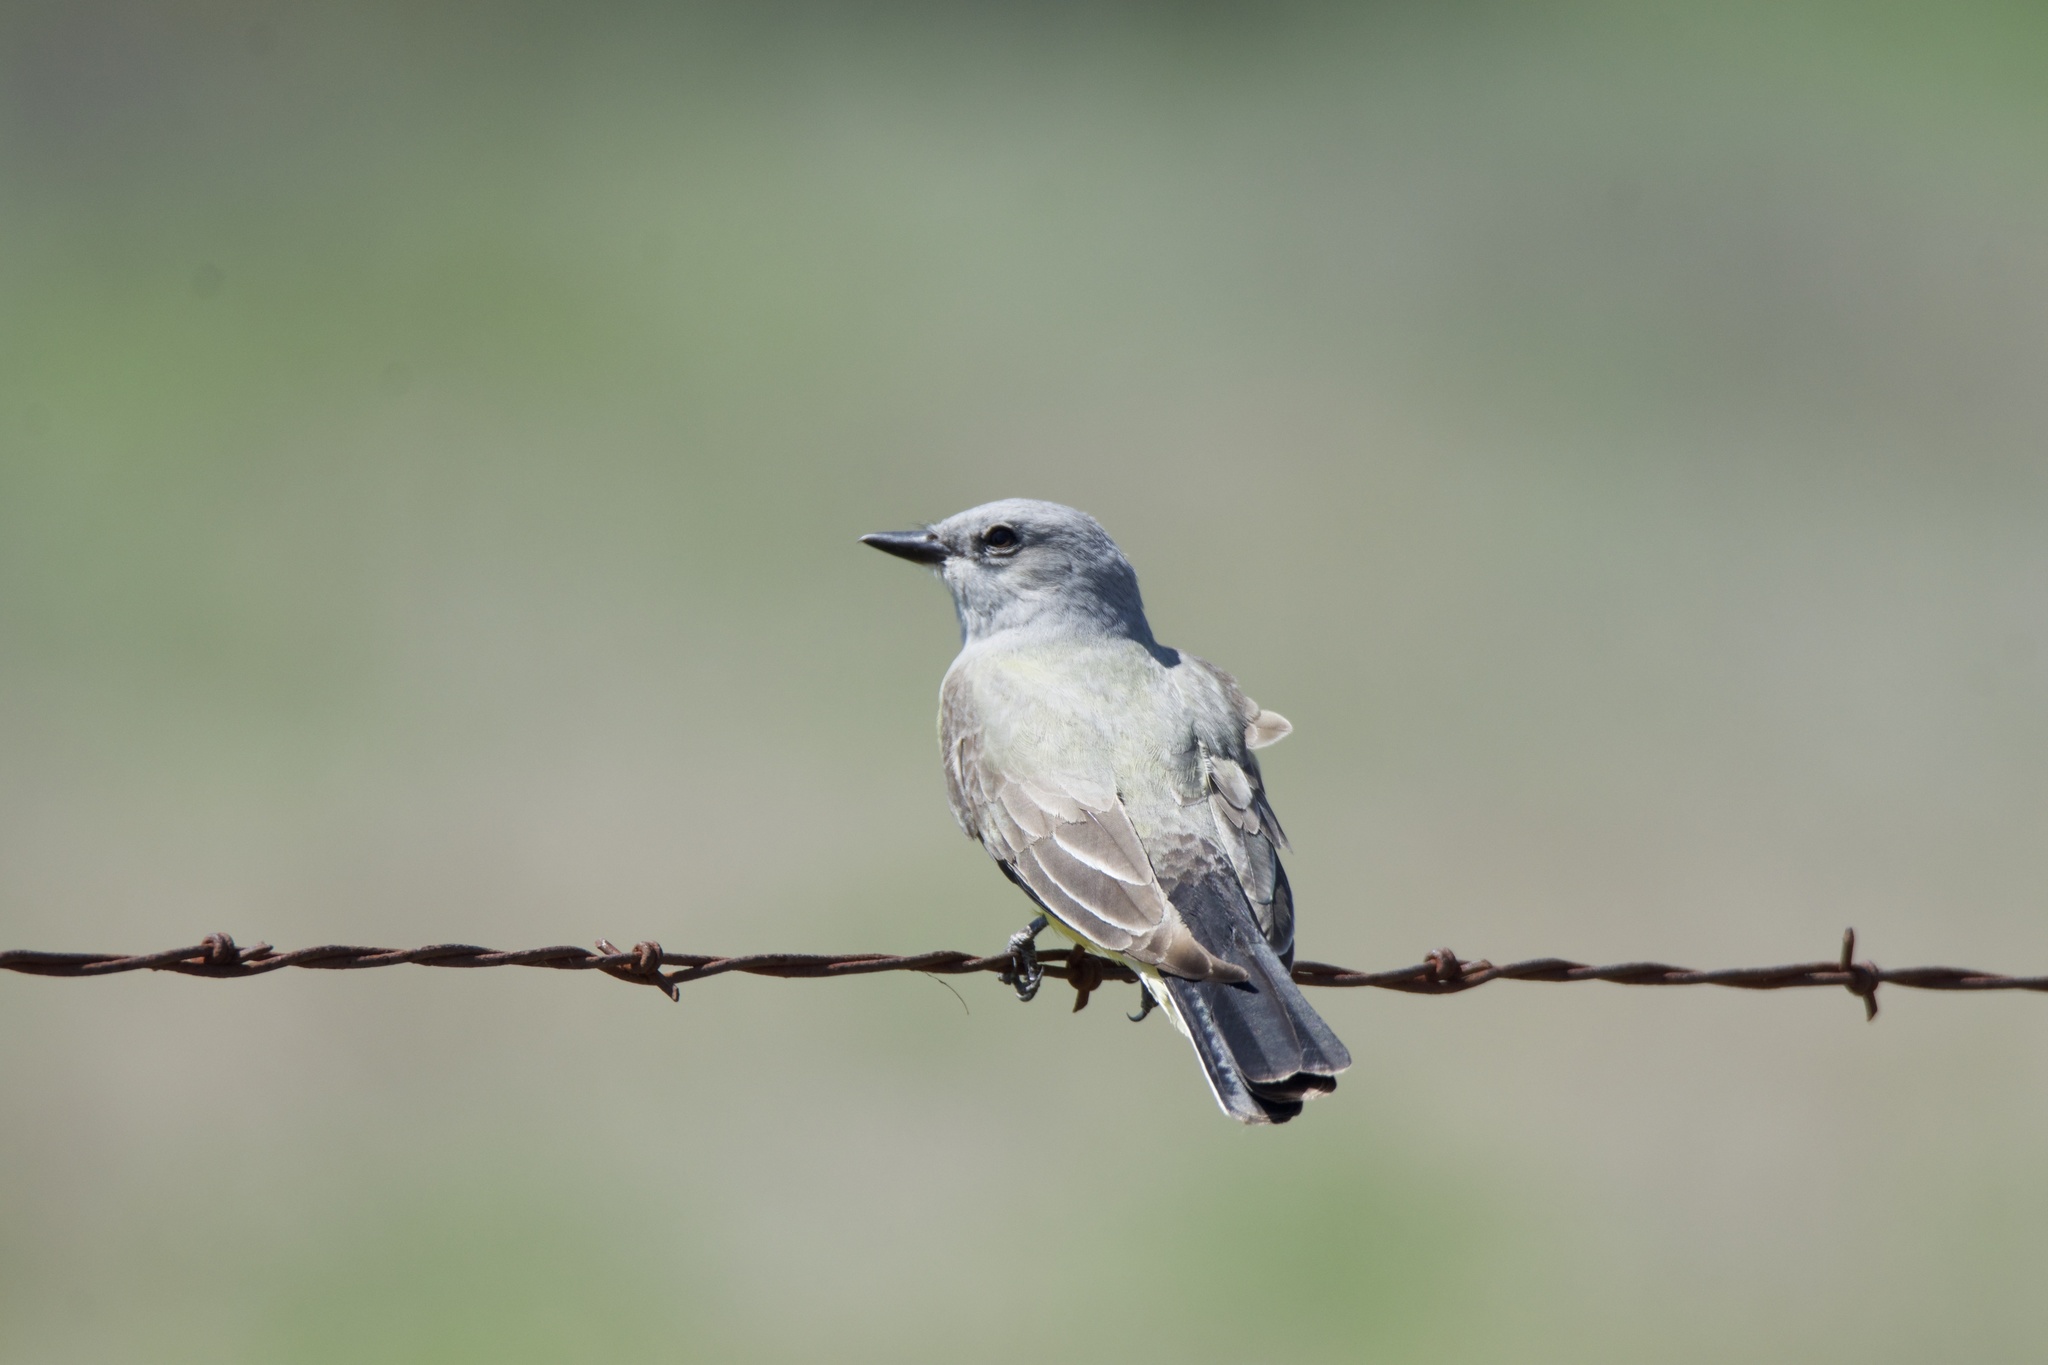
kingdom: Animalia
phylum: Chordata
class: Aves
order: Passeriformes
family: Tyrannidae
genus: Tyrannus
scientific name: Tyrannus verticalis
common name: Western kingbird
